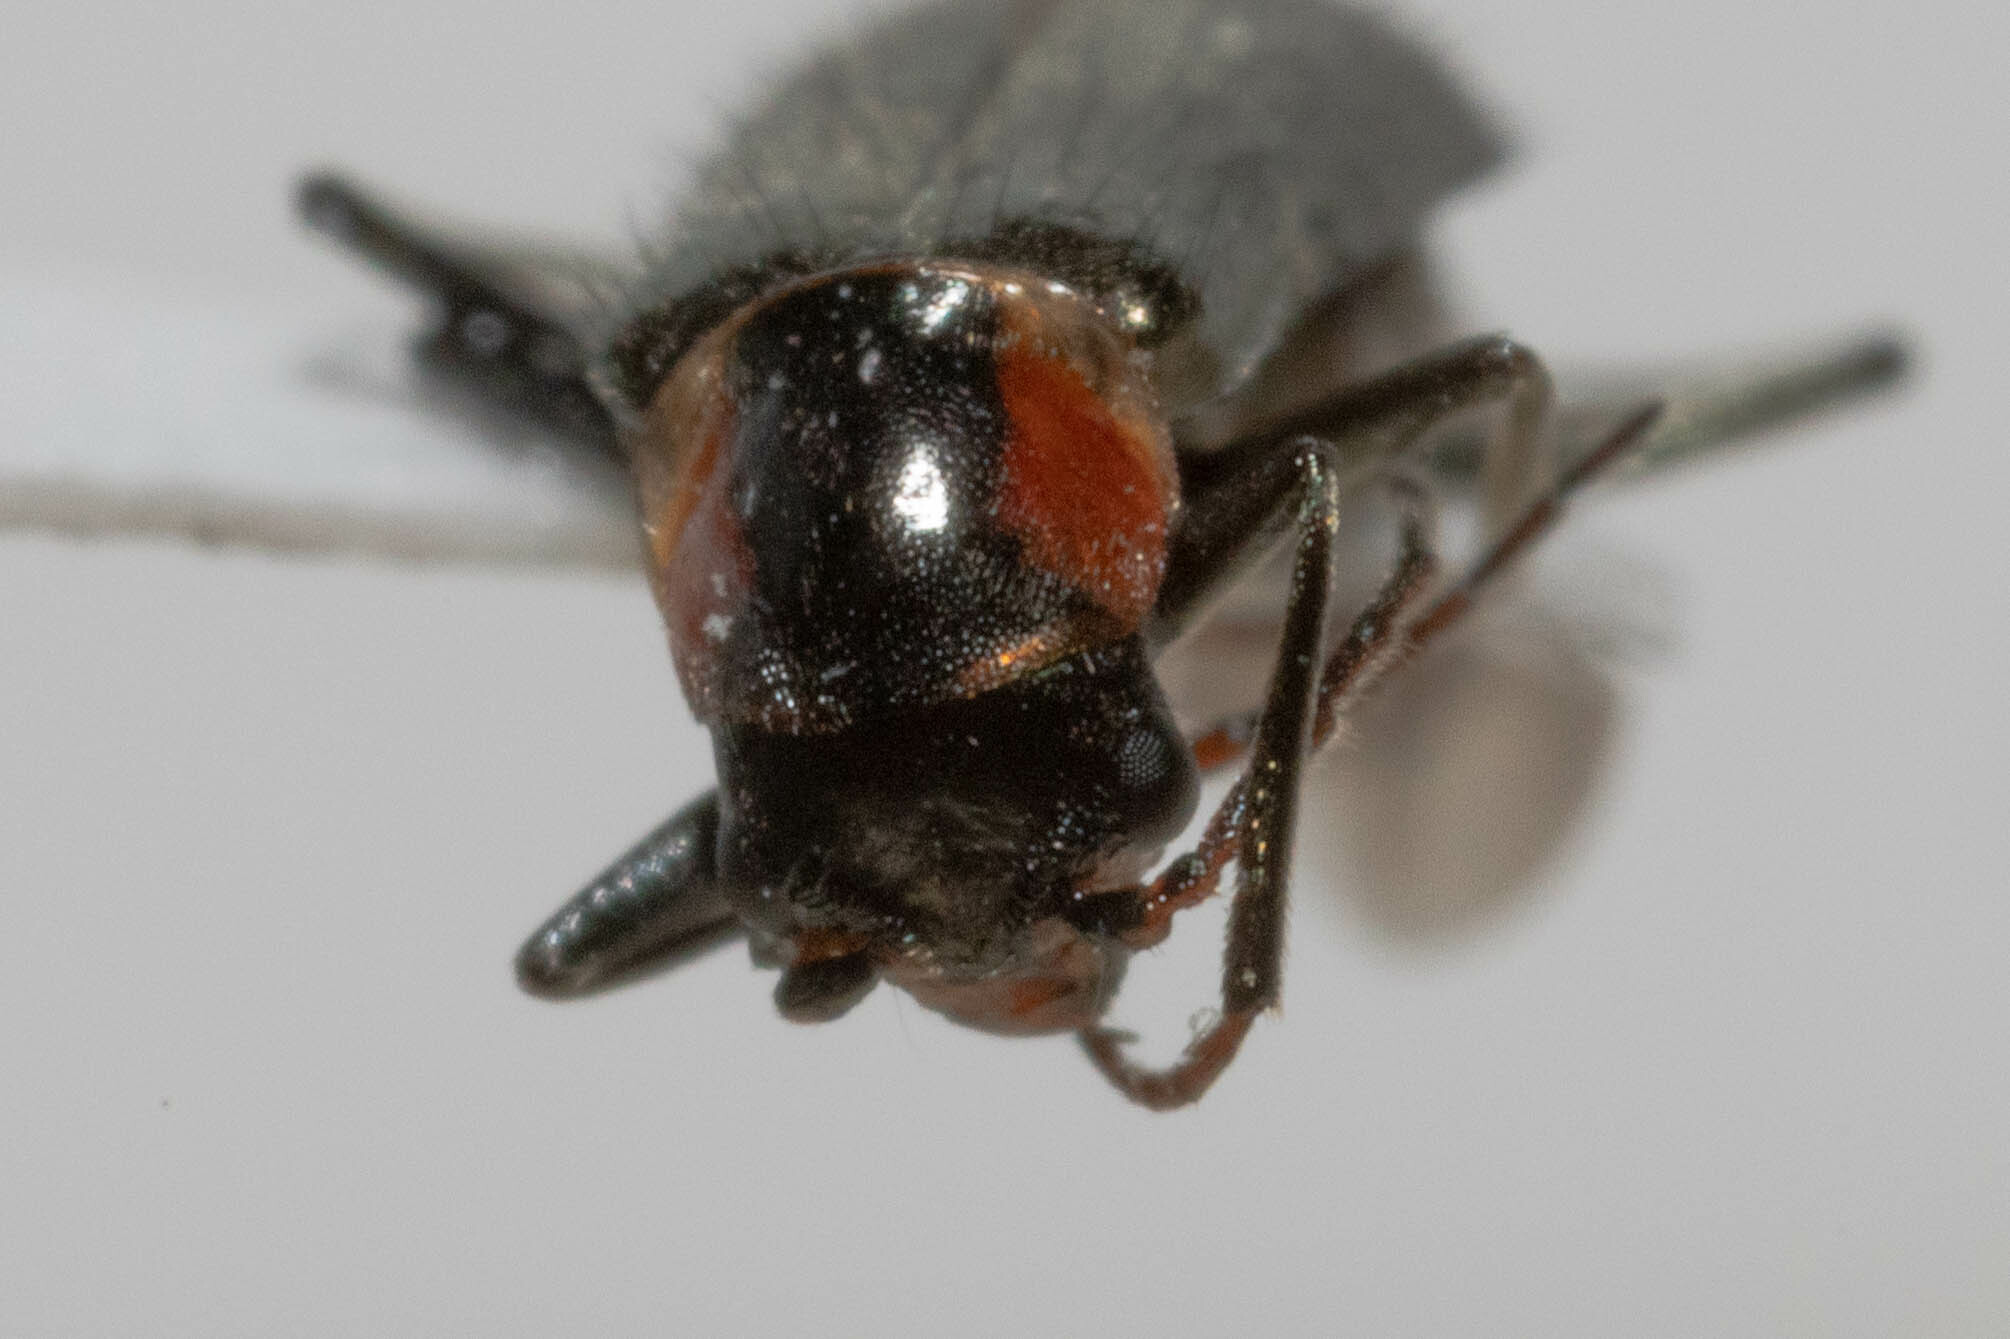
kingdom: Animalia
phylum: Arthropoda
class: Insecta
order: Coleoptera
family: Melyridae
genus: Axinotarsus
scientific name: Axinotarsus pulicarius
